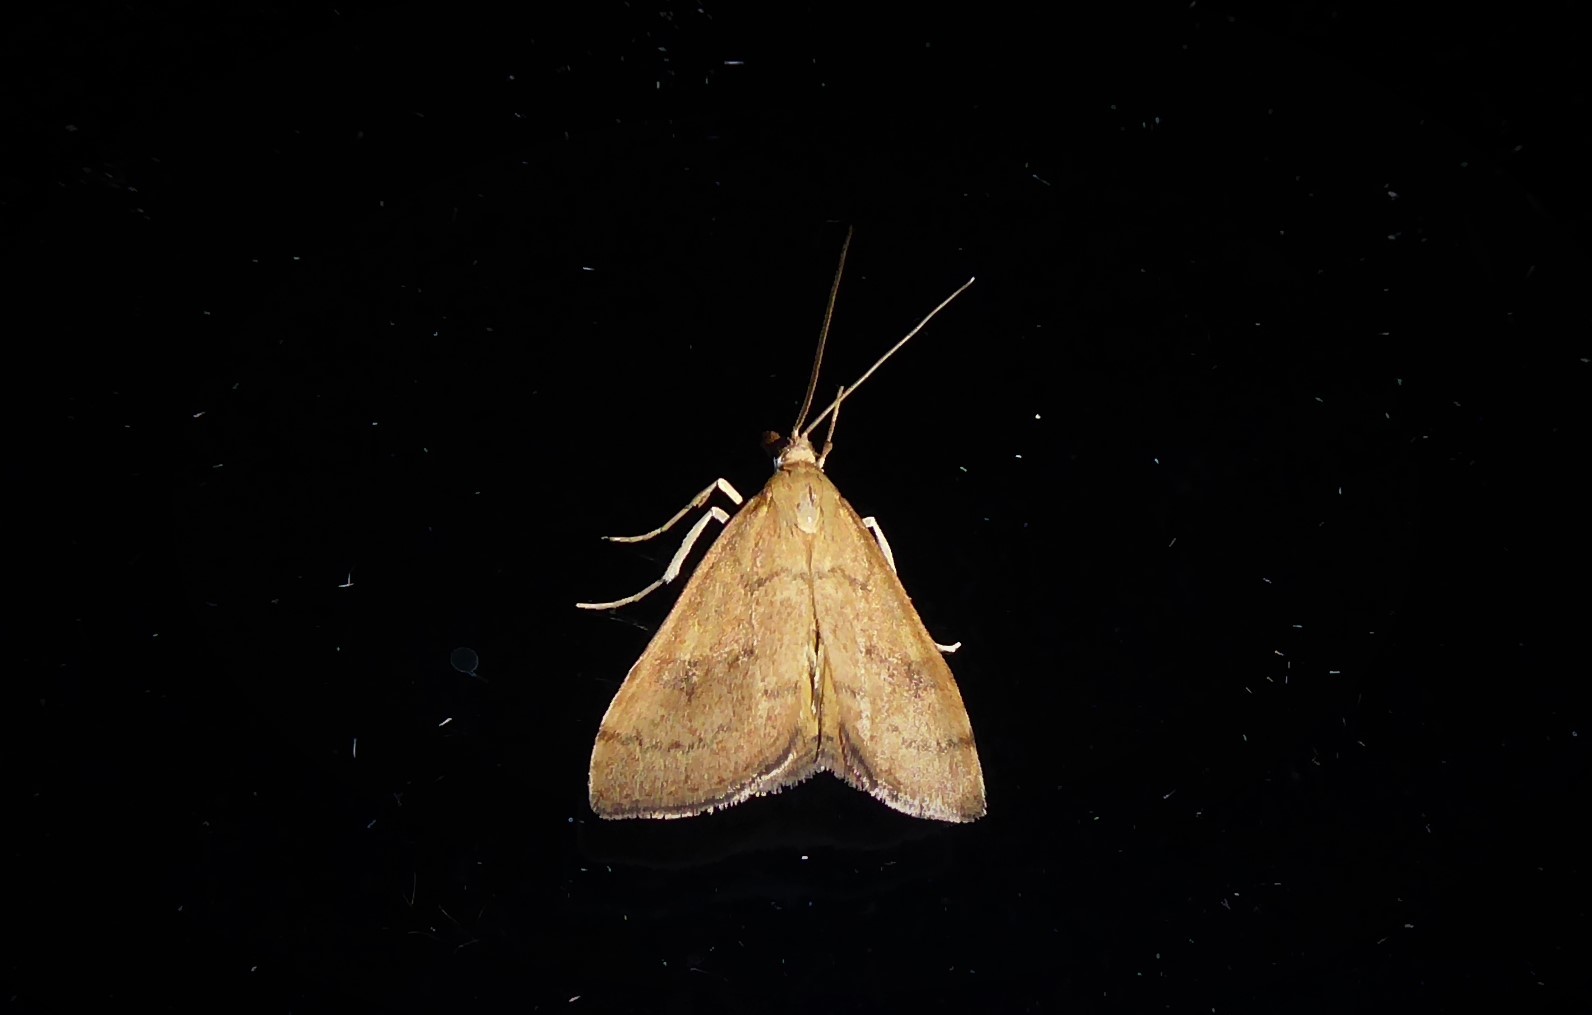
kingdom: Animalia
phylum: Arthropoda
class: Insecta
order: Lepidoptera
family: Crambidae
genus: Udea
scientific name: Udea Mnesictena flavidalis
